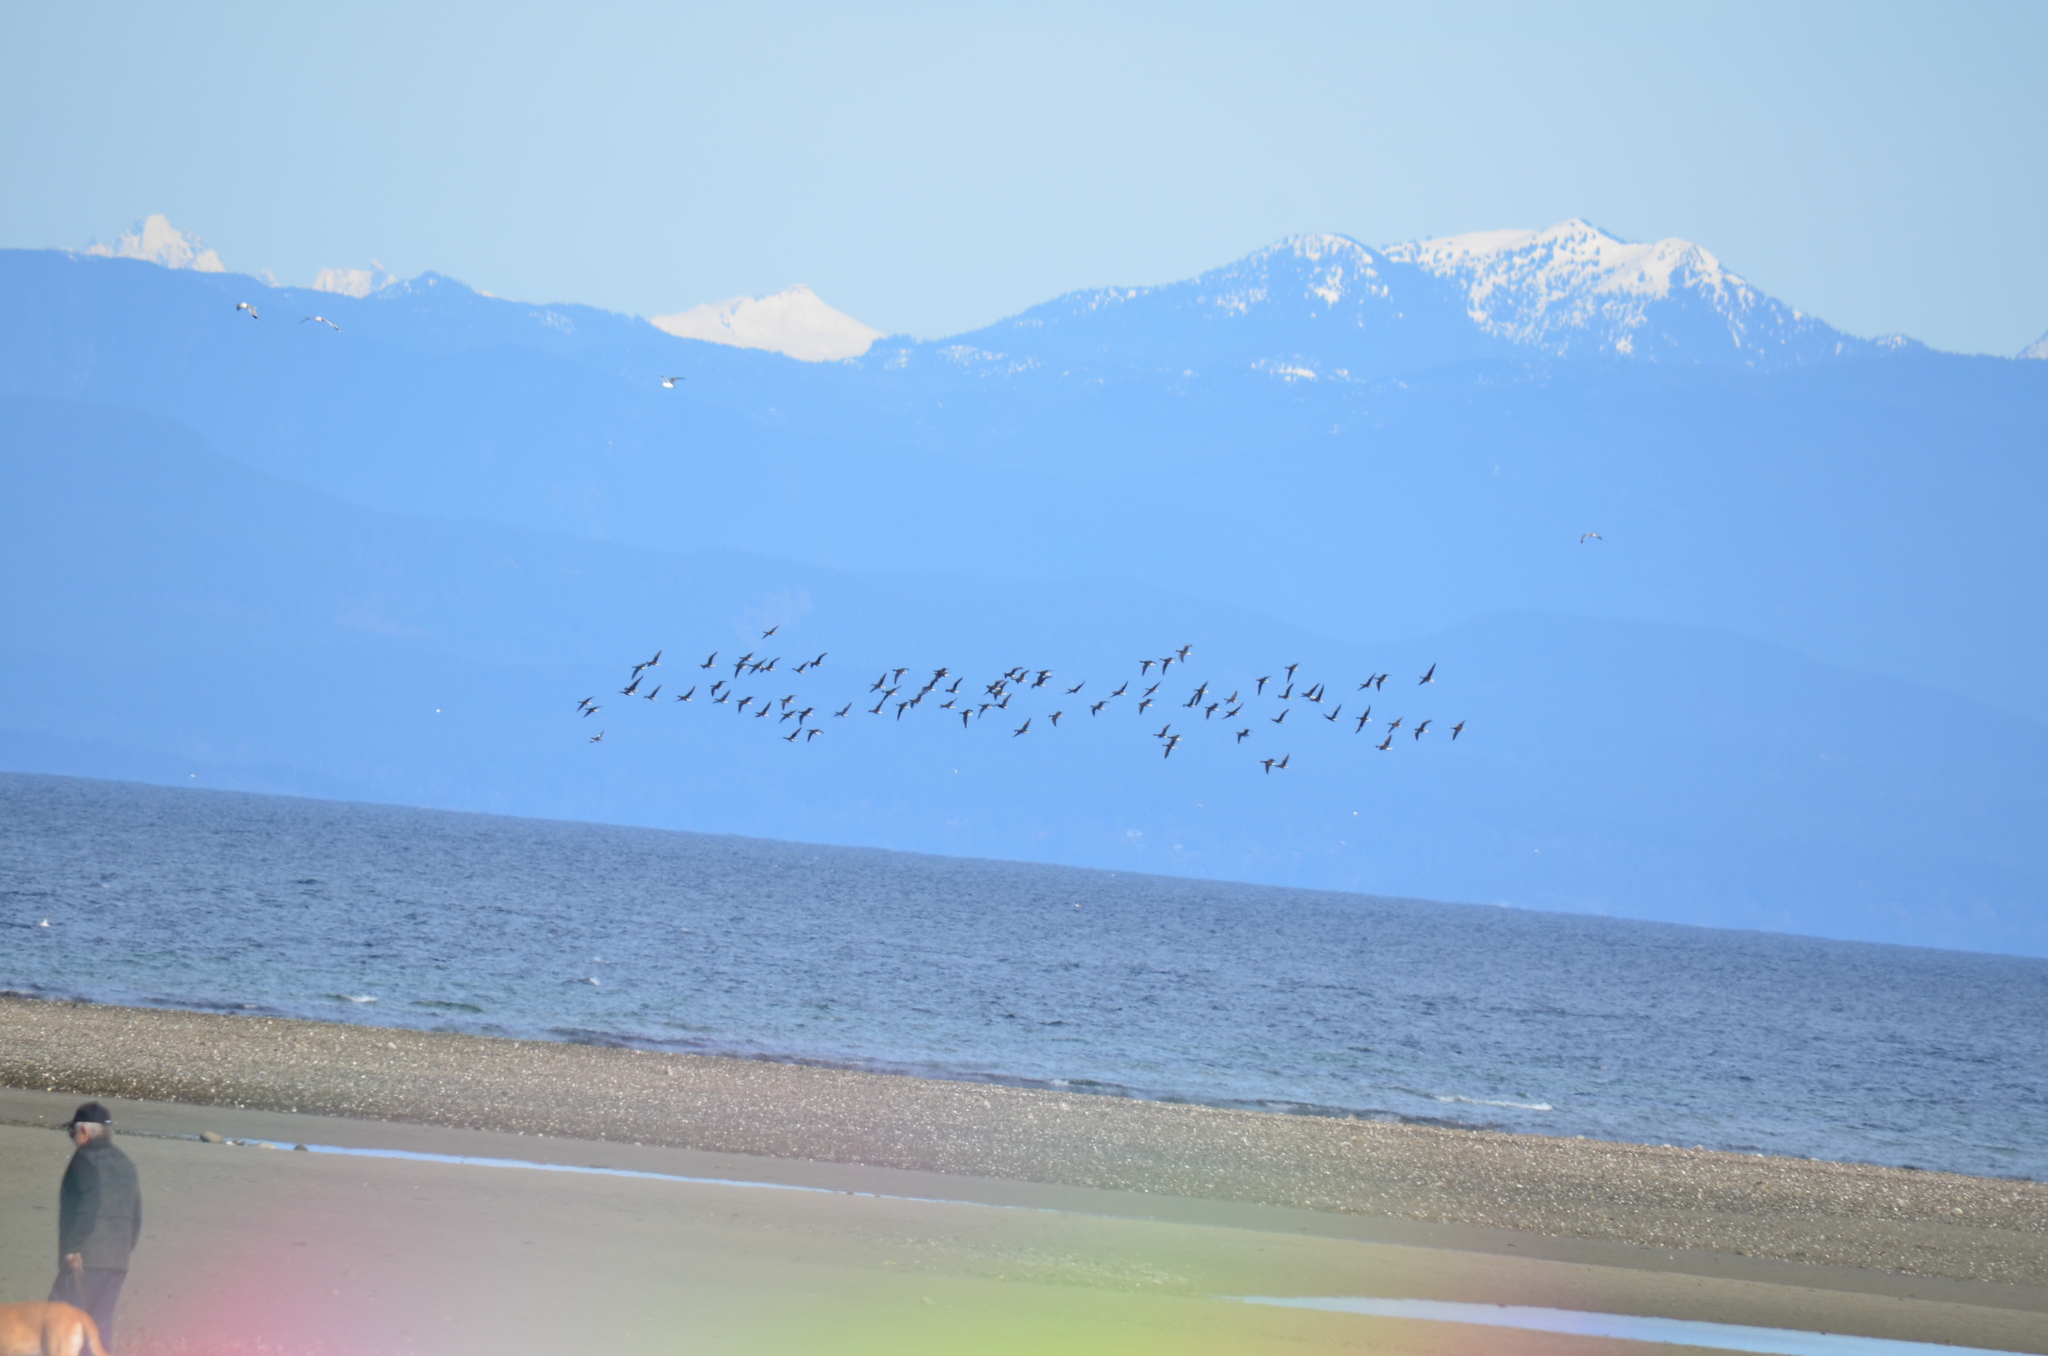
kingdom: Animalia
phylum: Chordata
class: Aves
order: Anseriformes
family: Anatidae
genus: Branta
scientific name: Branta bernicla
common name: Brant goose
